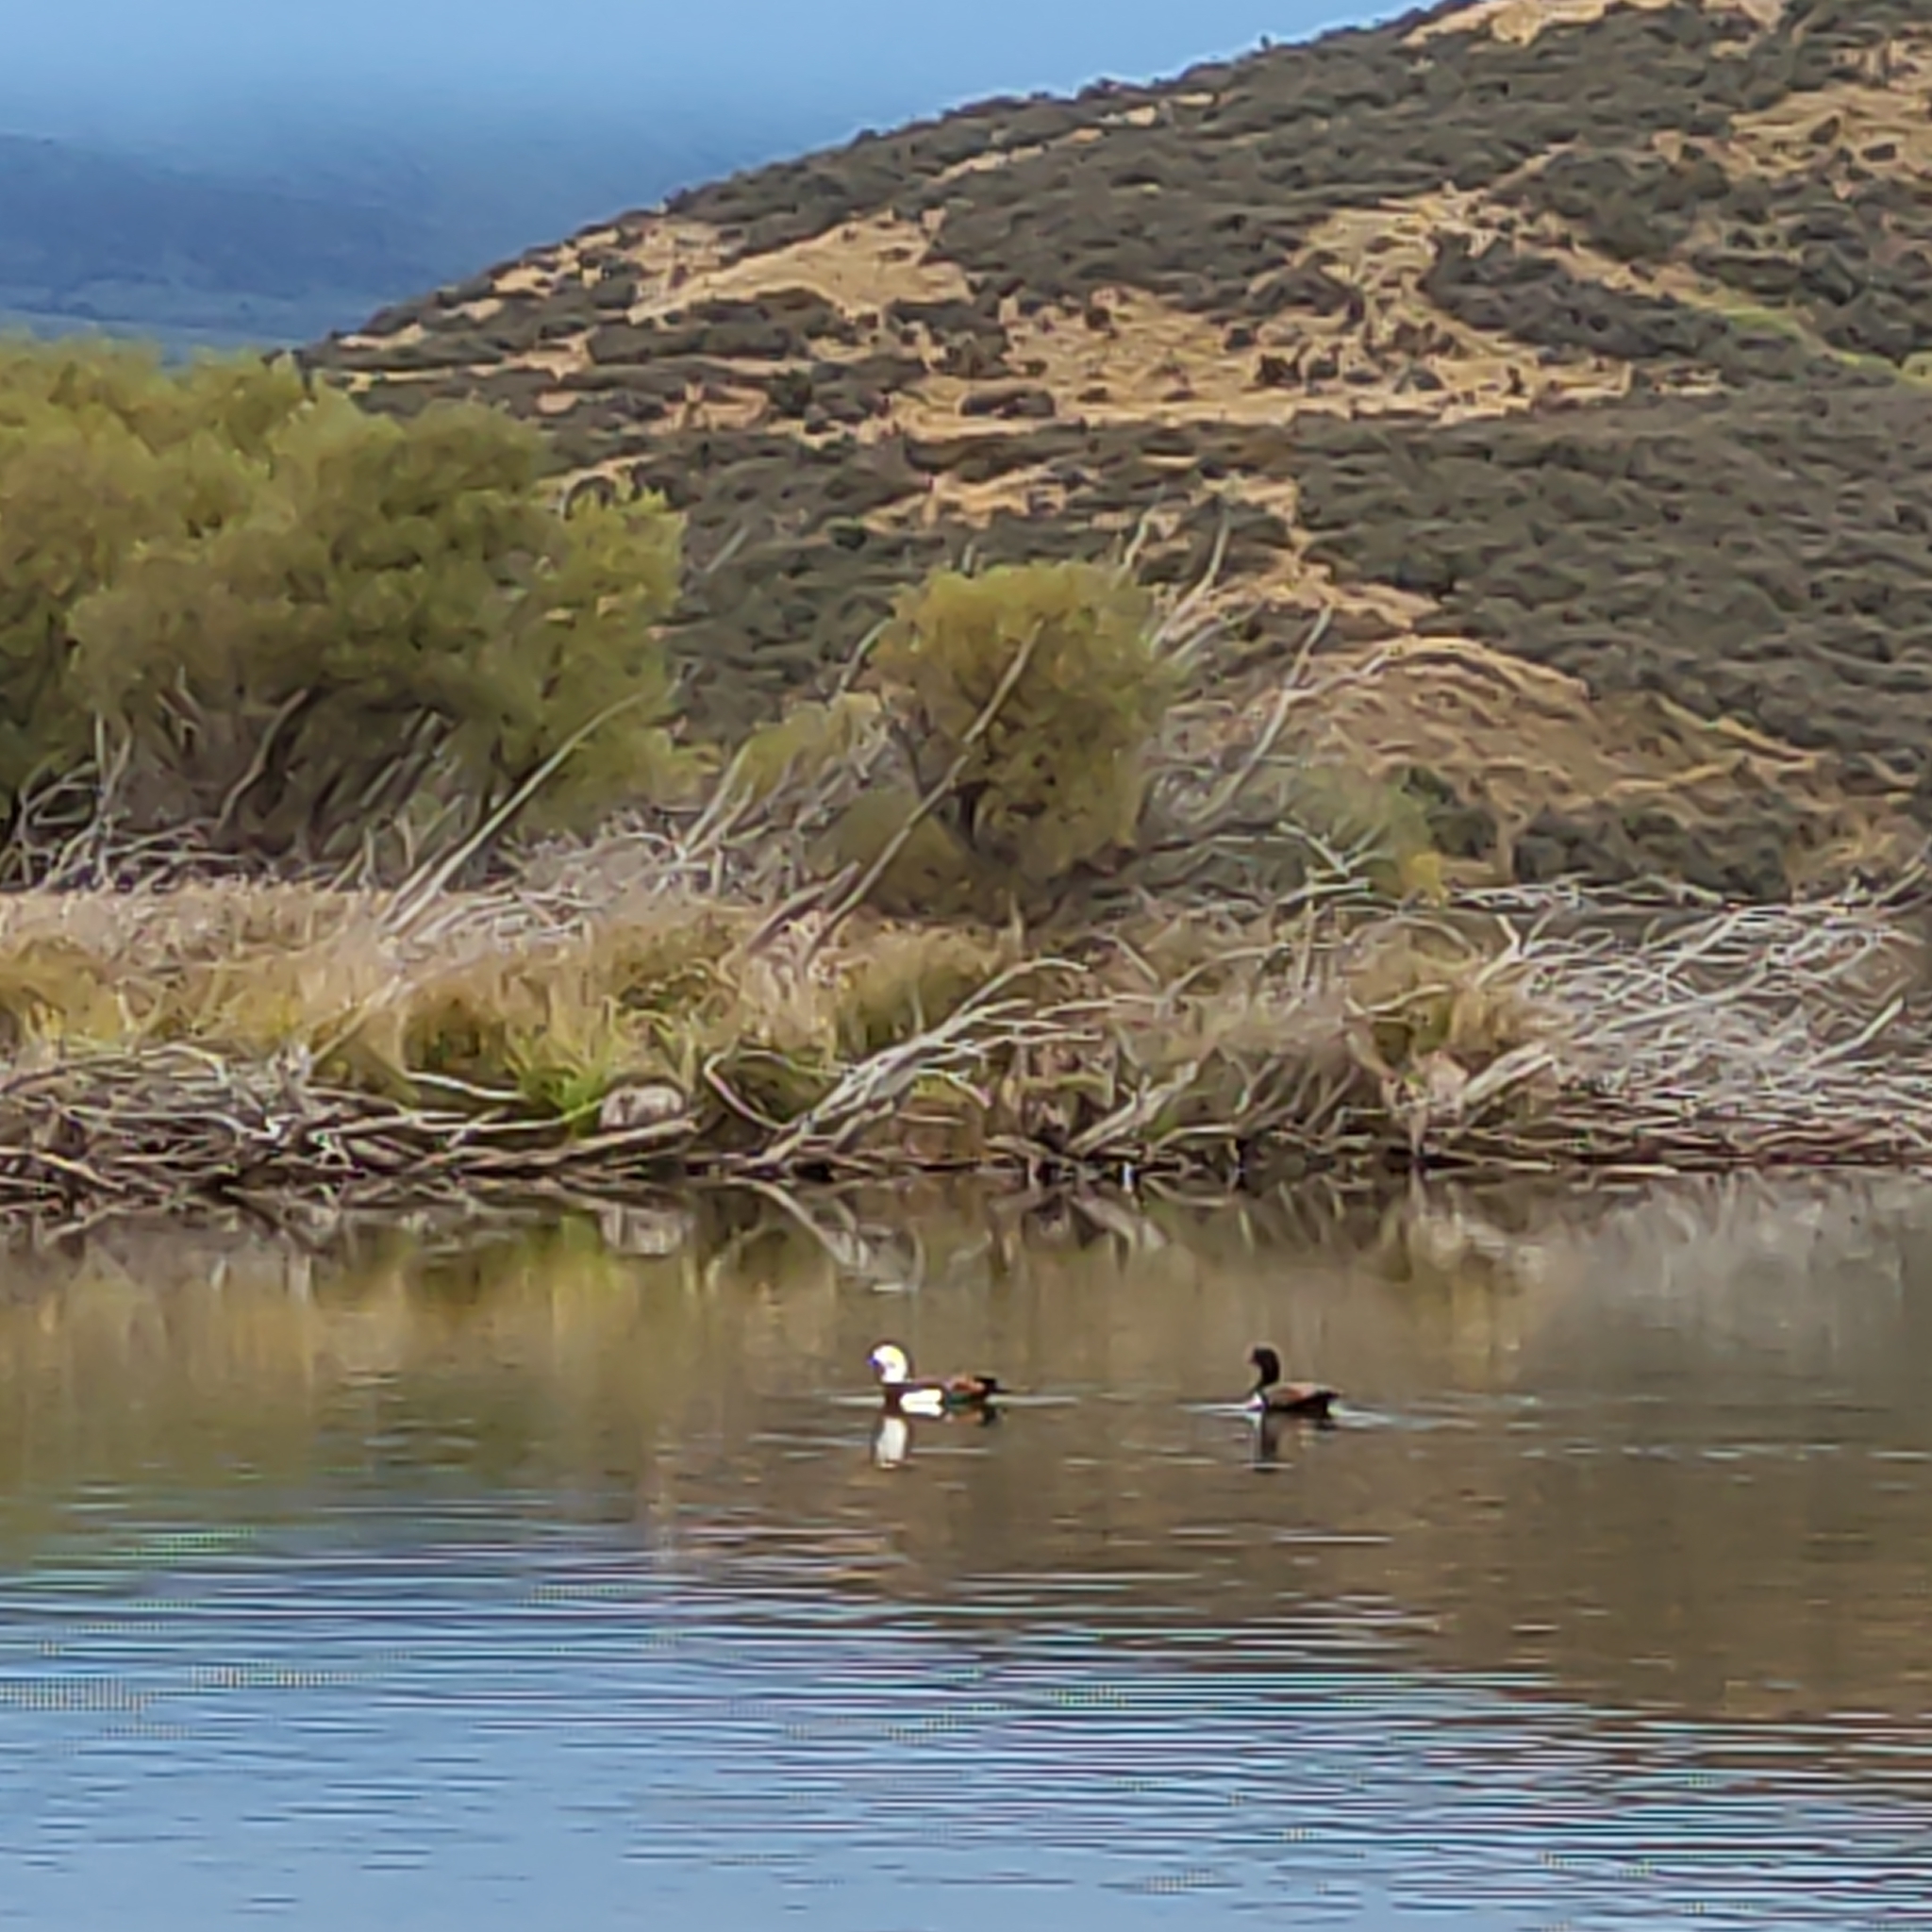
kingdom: Animalia
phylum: Chordata
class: Aves
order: Anseriformes
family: Anatidae
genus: Tadorna
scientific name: Tadorna variegata
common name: Paradise shelduck
